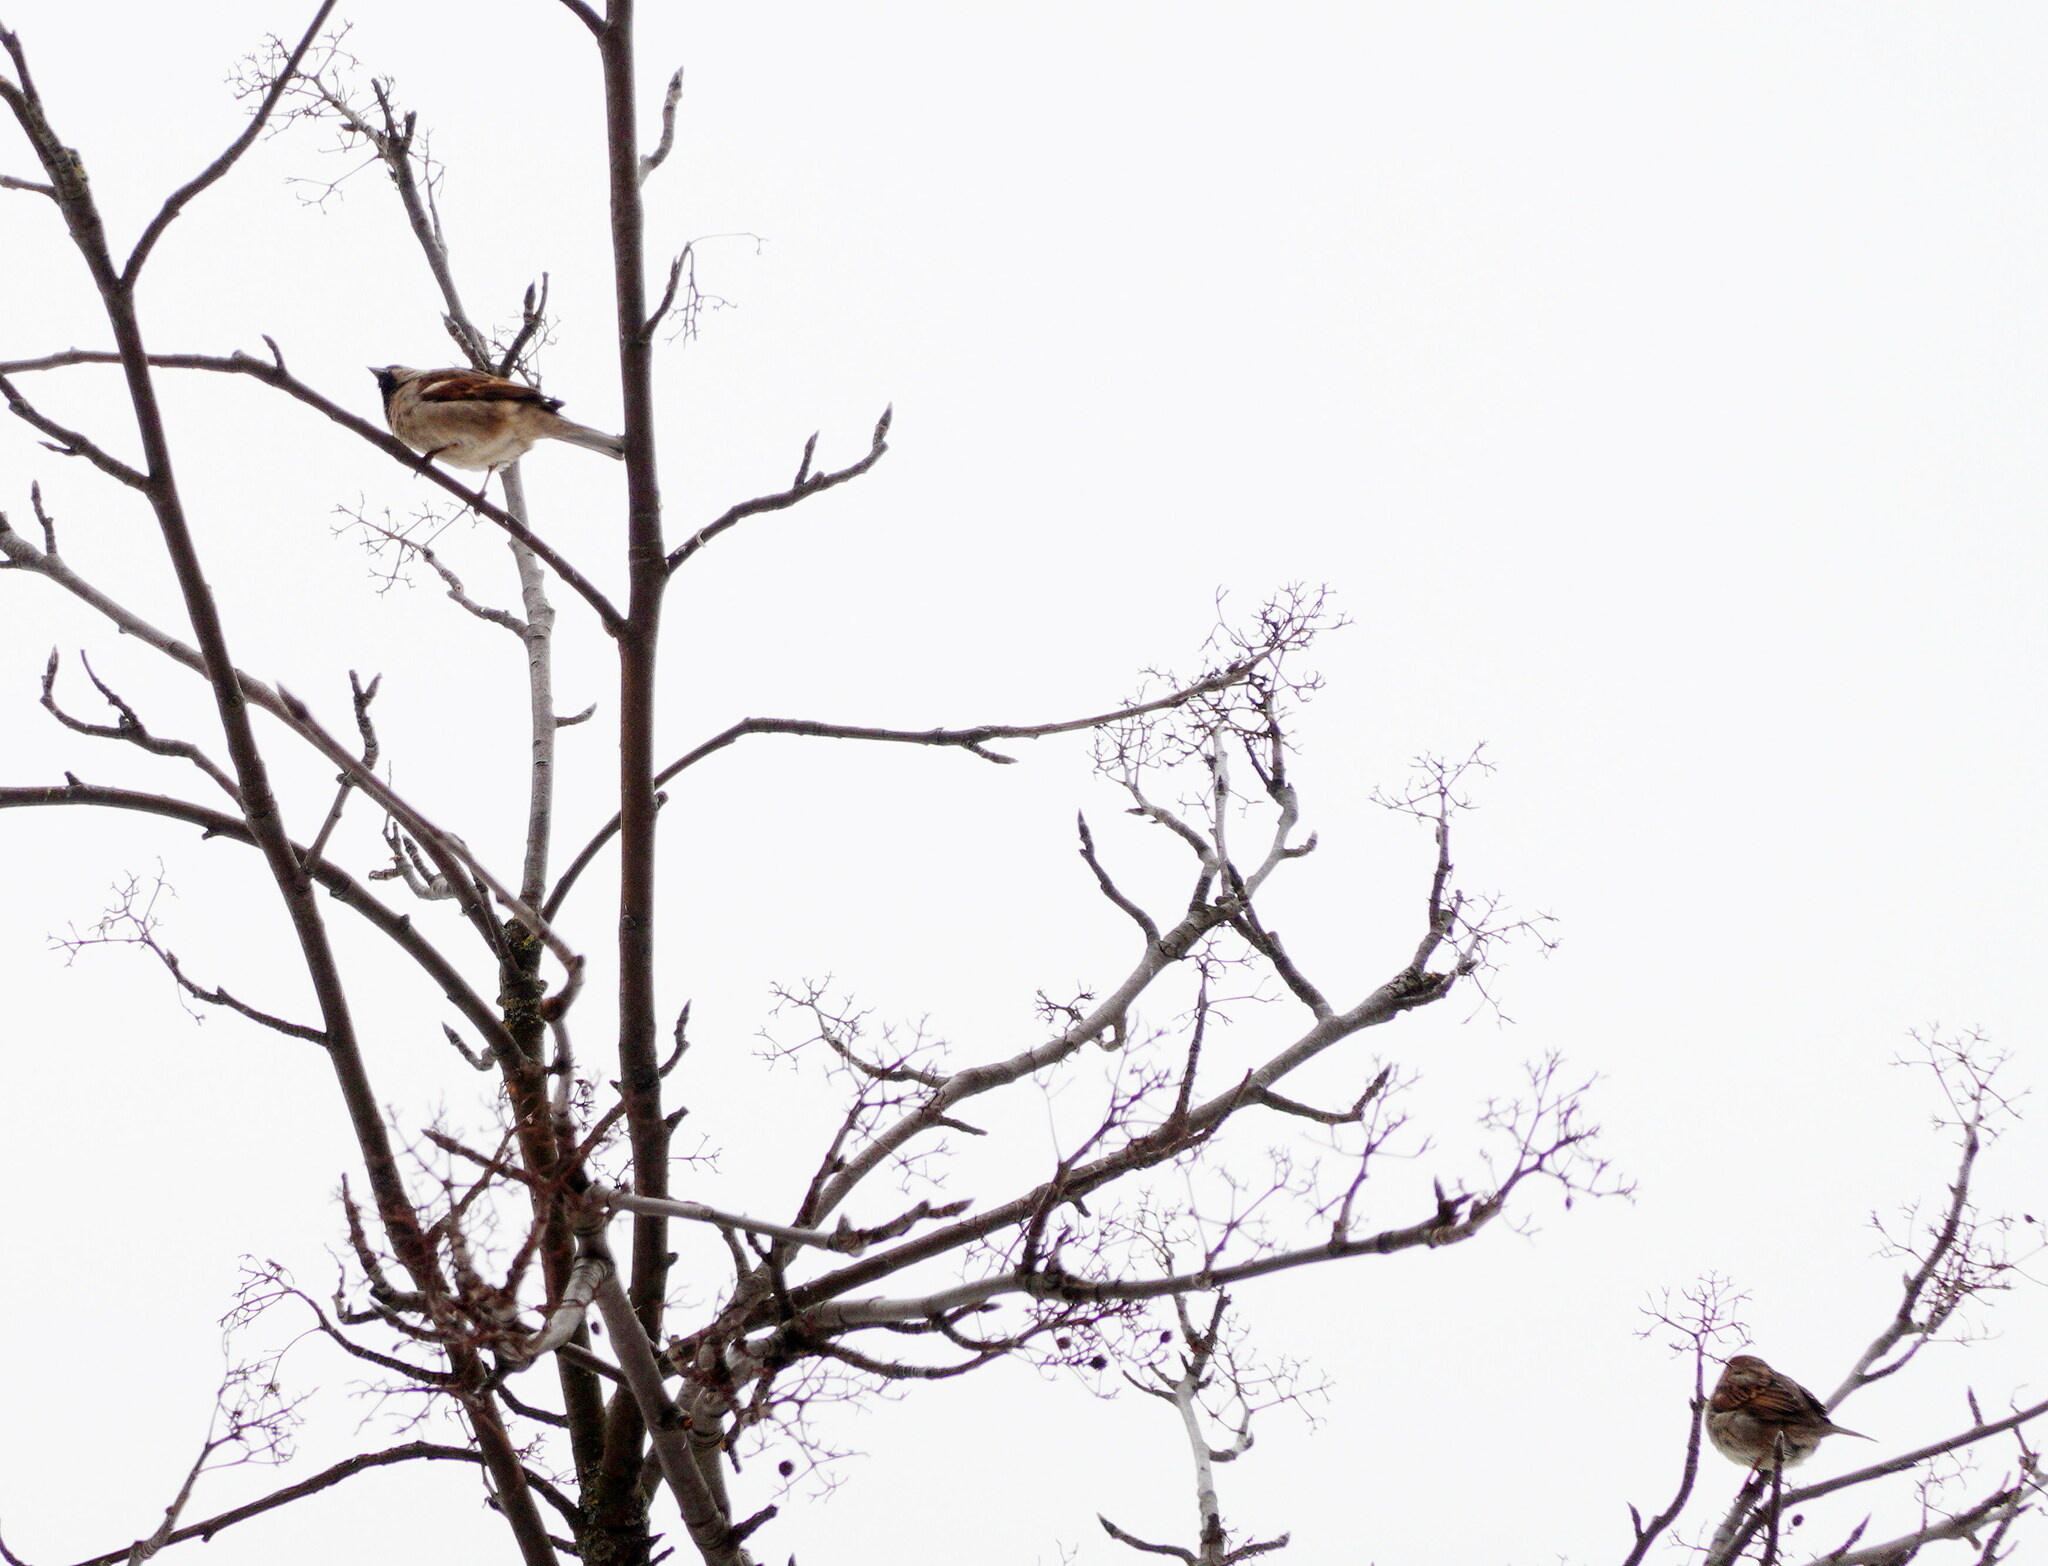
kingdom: Animalia
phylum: Chordata
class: Aves
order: Passeriformes
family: Passeridae
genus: Passer
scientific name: Passer domesticus
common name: House sparrow
